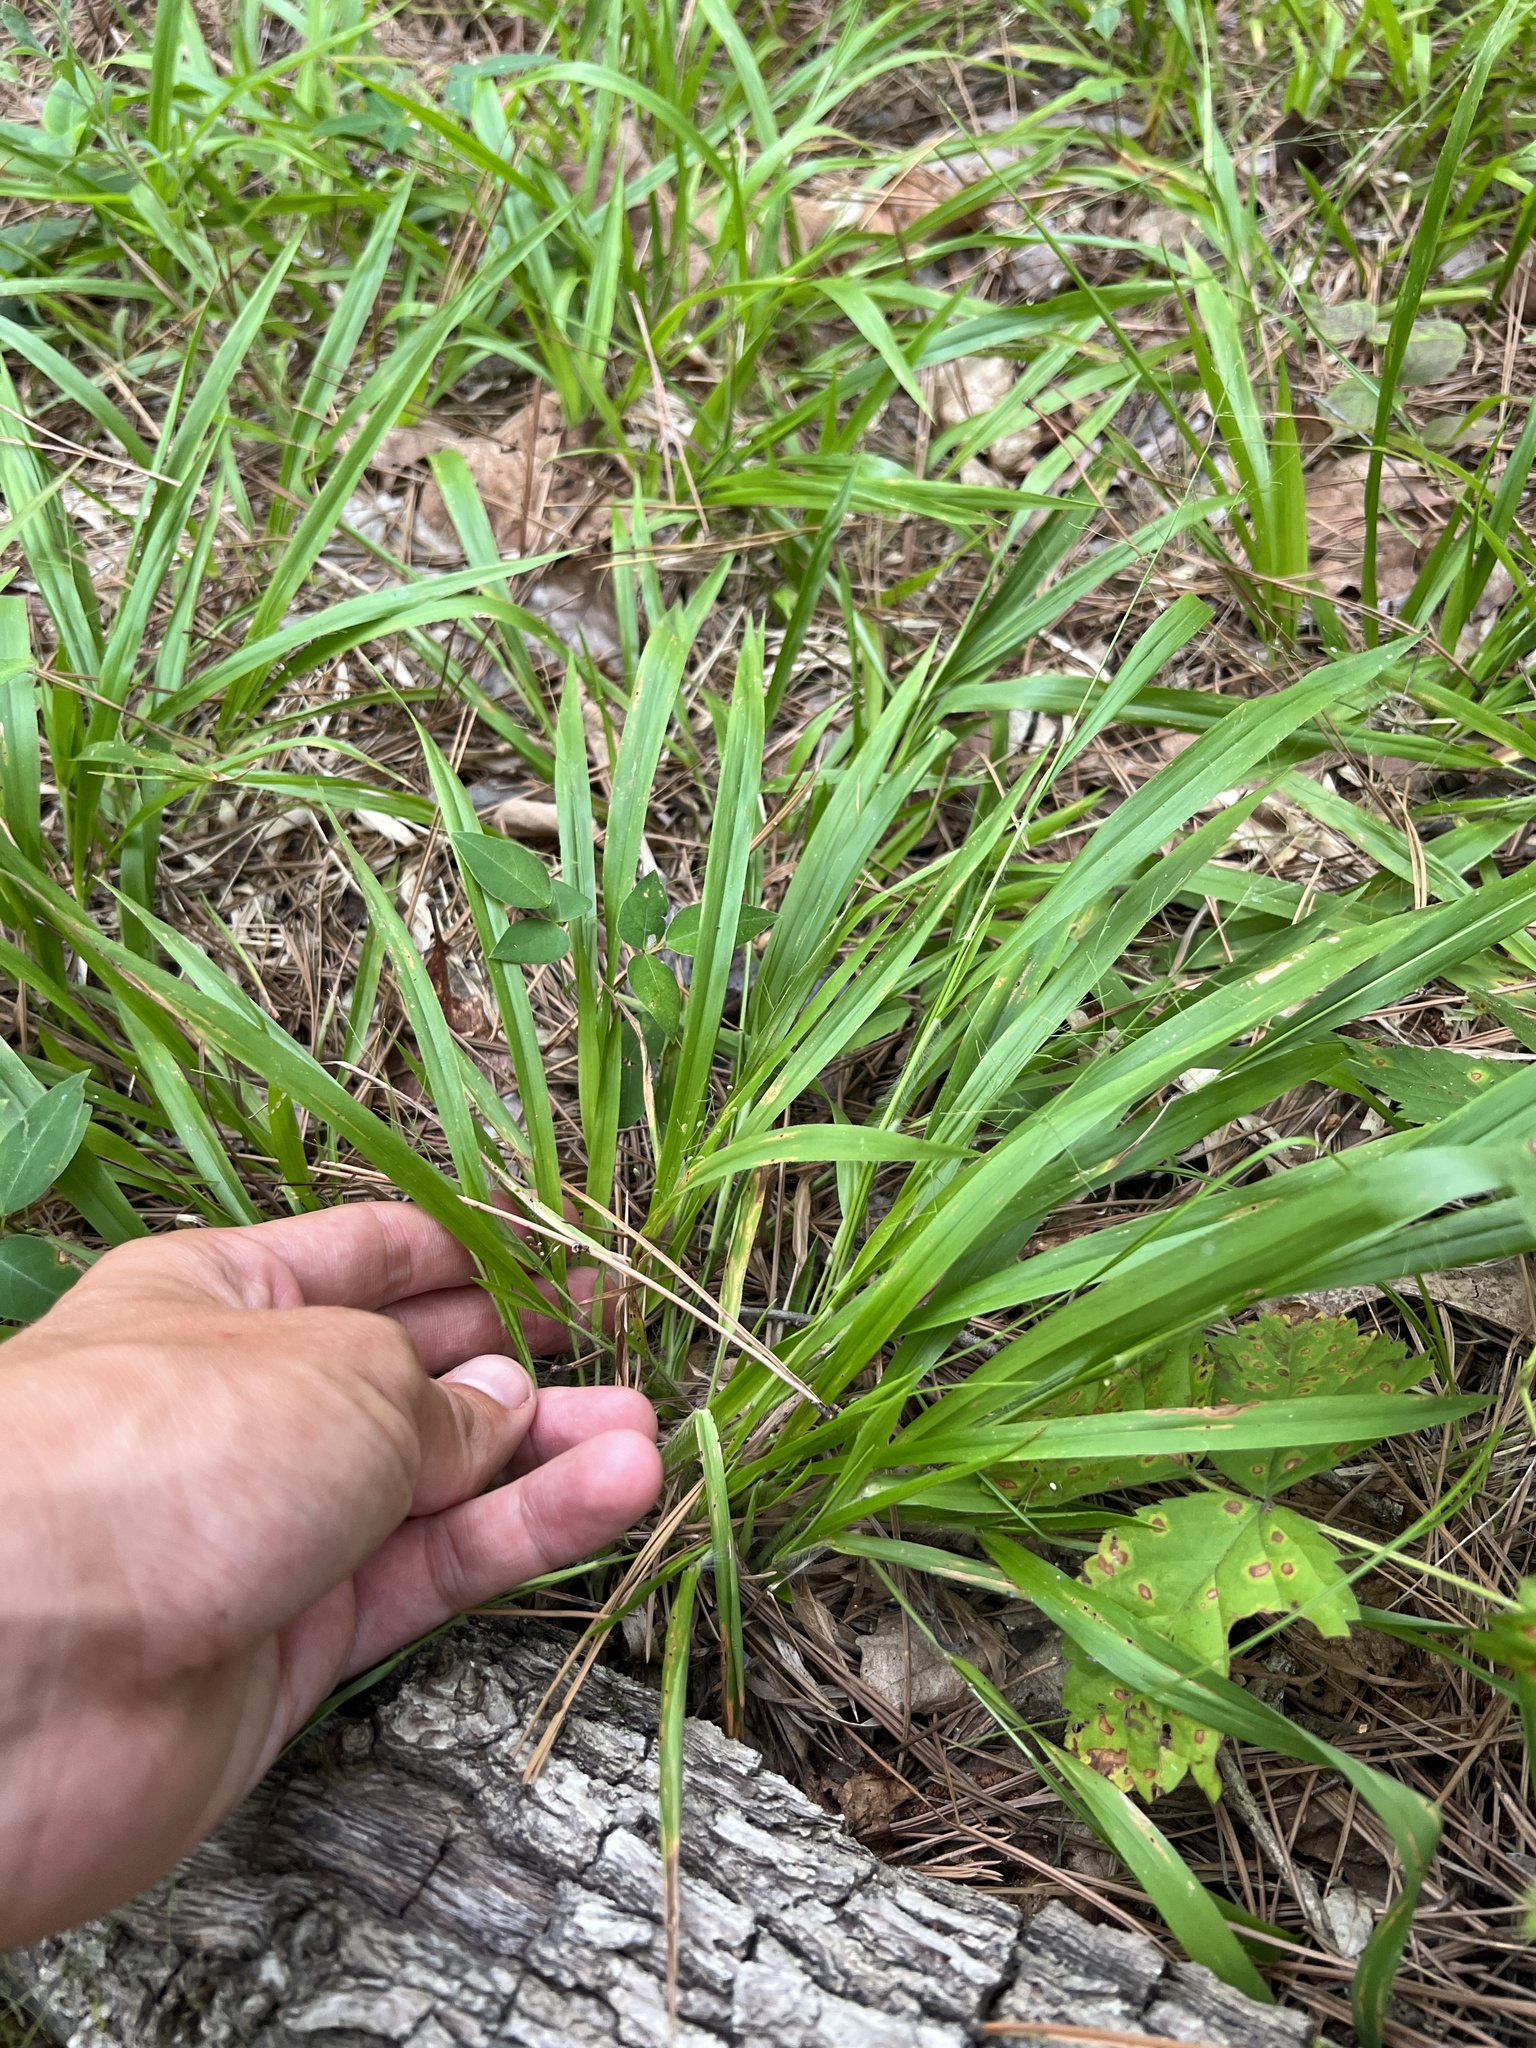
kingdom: Plantae
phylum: Tracheophyta
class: Liliopsida
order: Poales
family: Poaceae
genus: Dichanthelium
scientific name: Dichanthelium laxiflorum
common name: Soft-tuft panic grass
